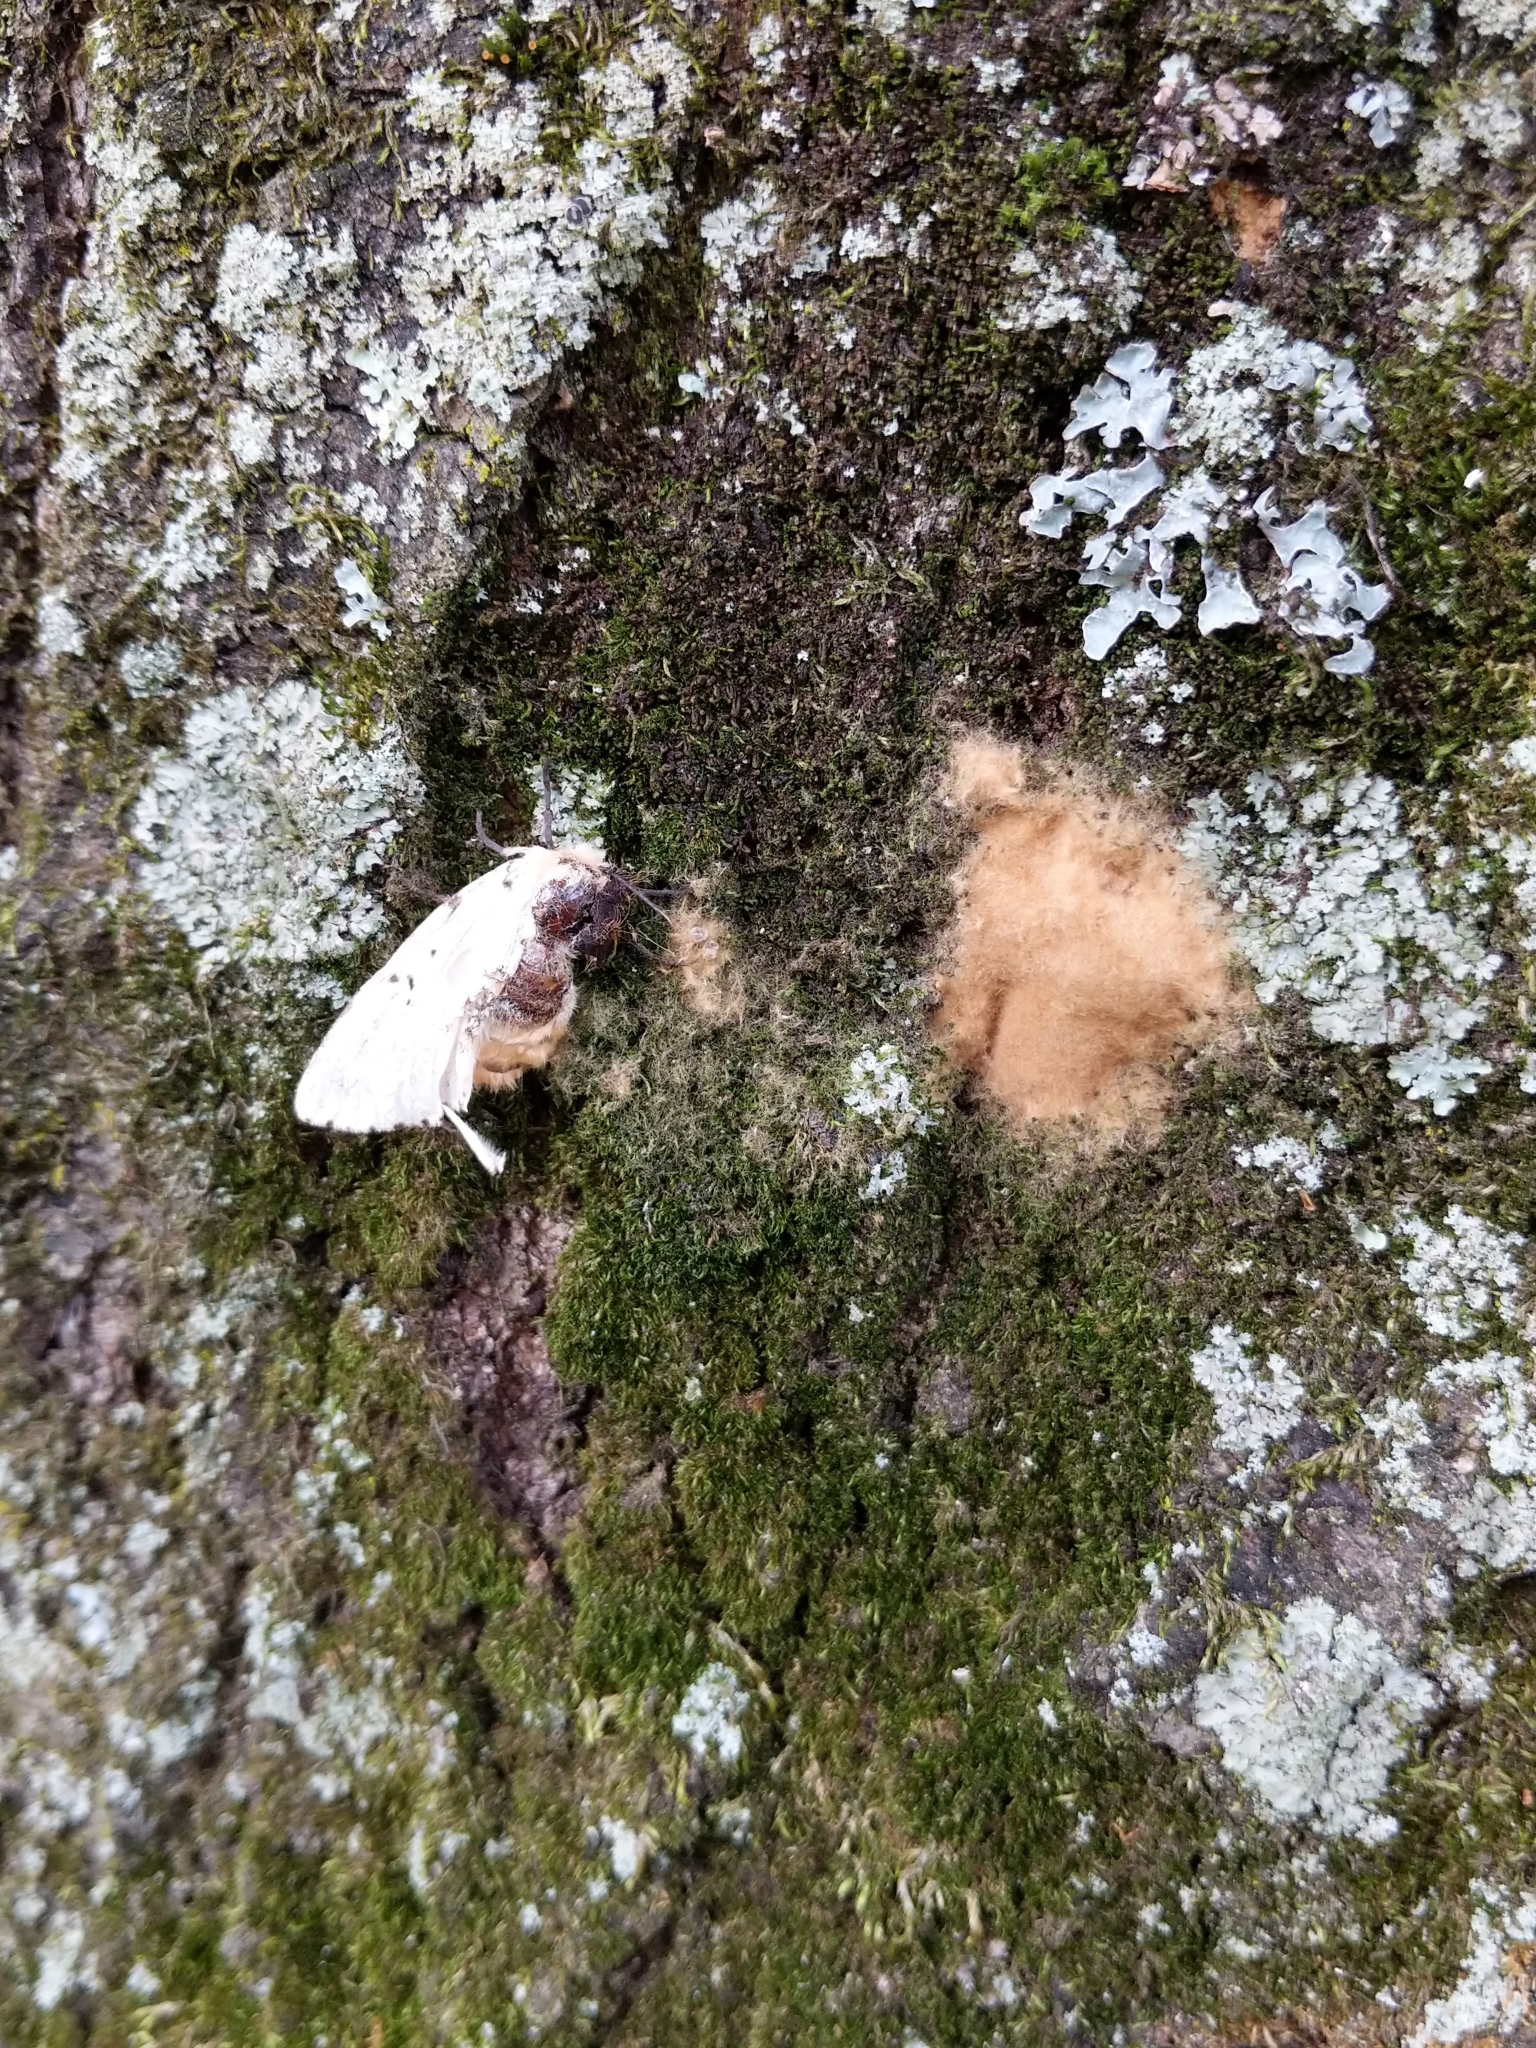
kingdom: Animalia
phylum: Arthropoda
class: Insecta
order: Lepidoptera
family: Erebidae
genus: Lymantria
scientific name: Lymantria dispar
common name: Gypsy moth
